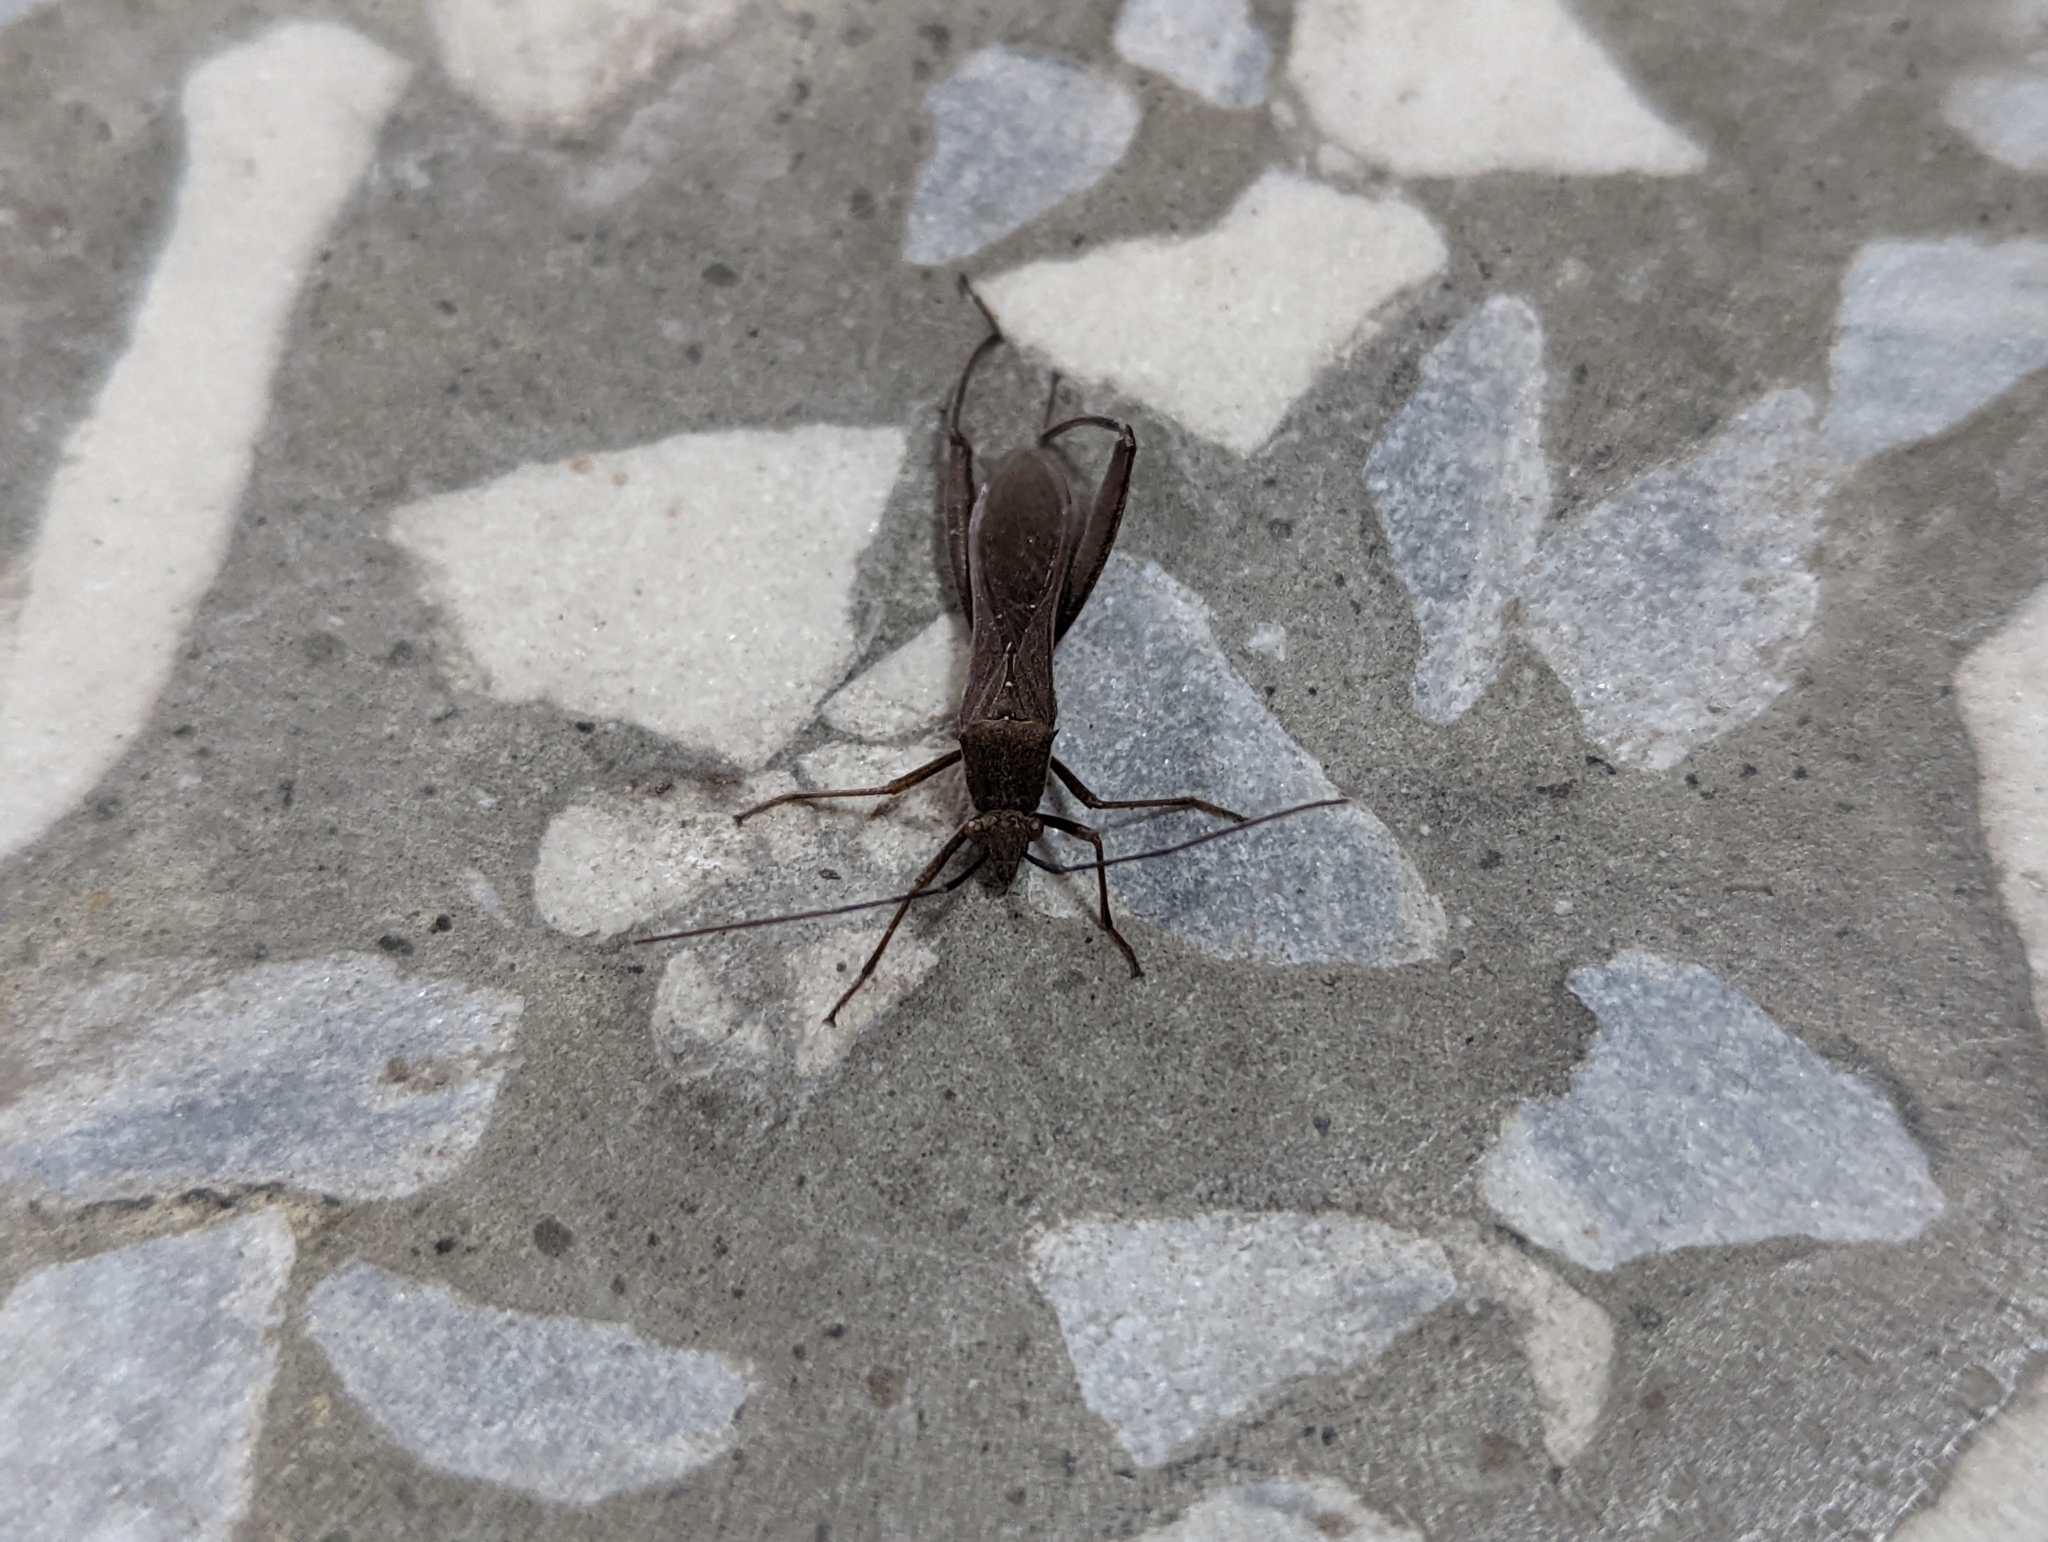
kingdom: Animalia
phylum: Arthropoda
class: Insecta
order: Hemiptera
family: Alydidae
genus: Riptortus
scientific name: Riptortus linearis
